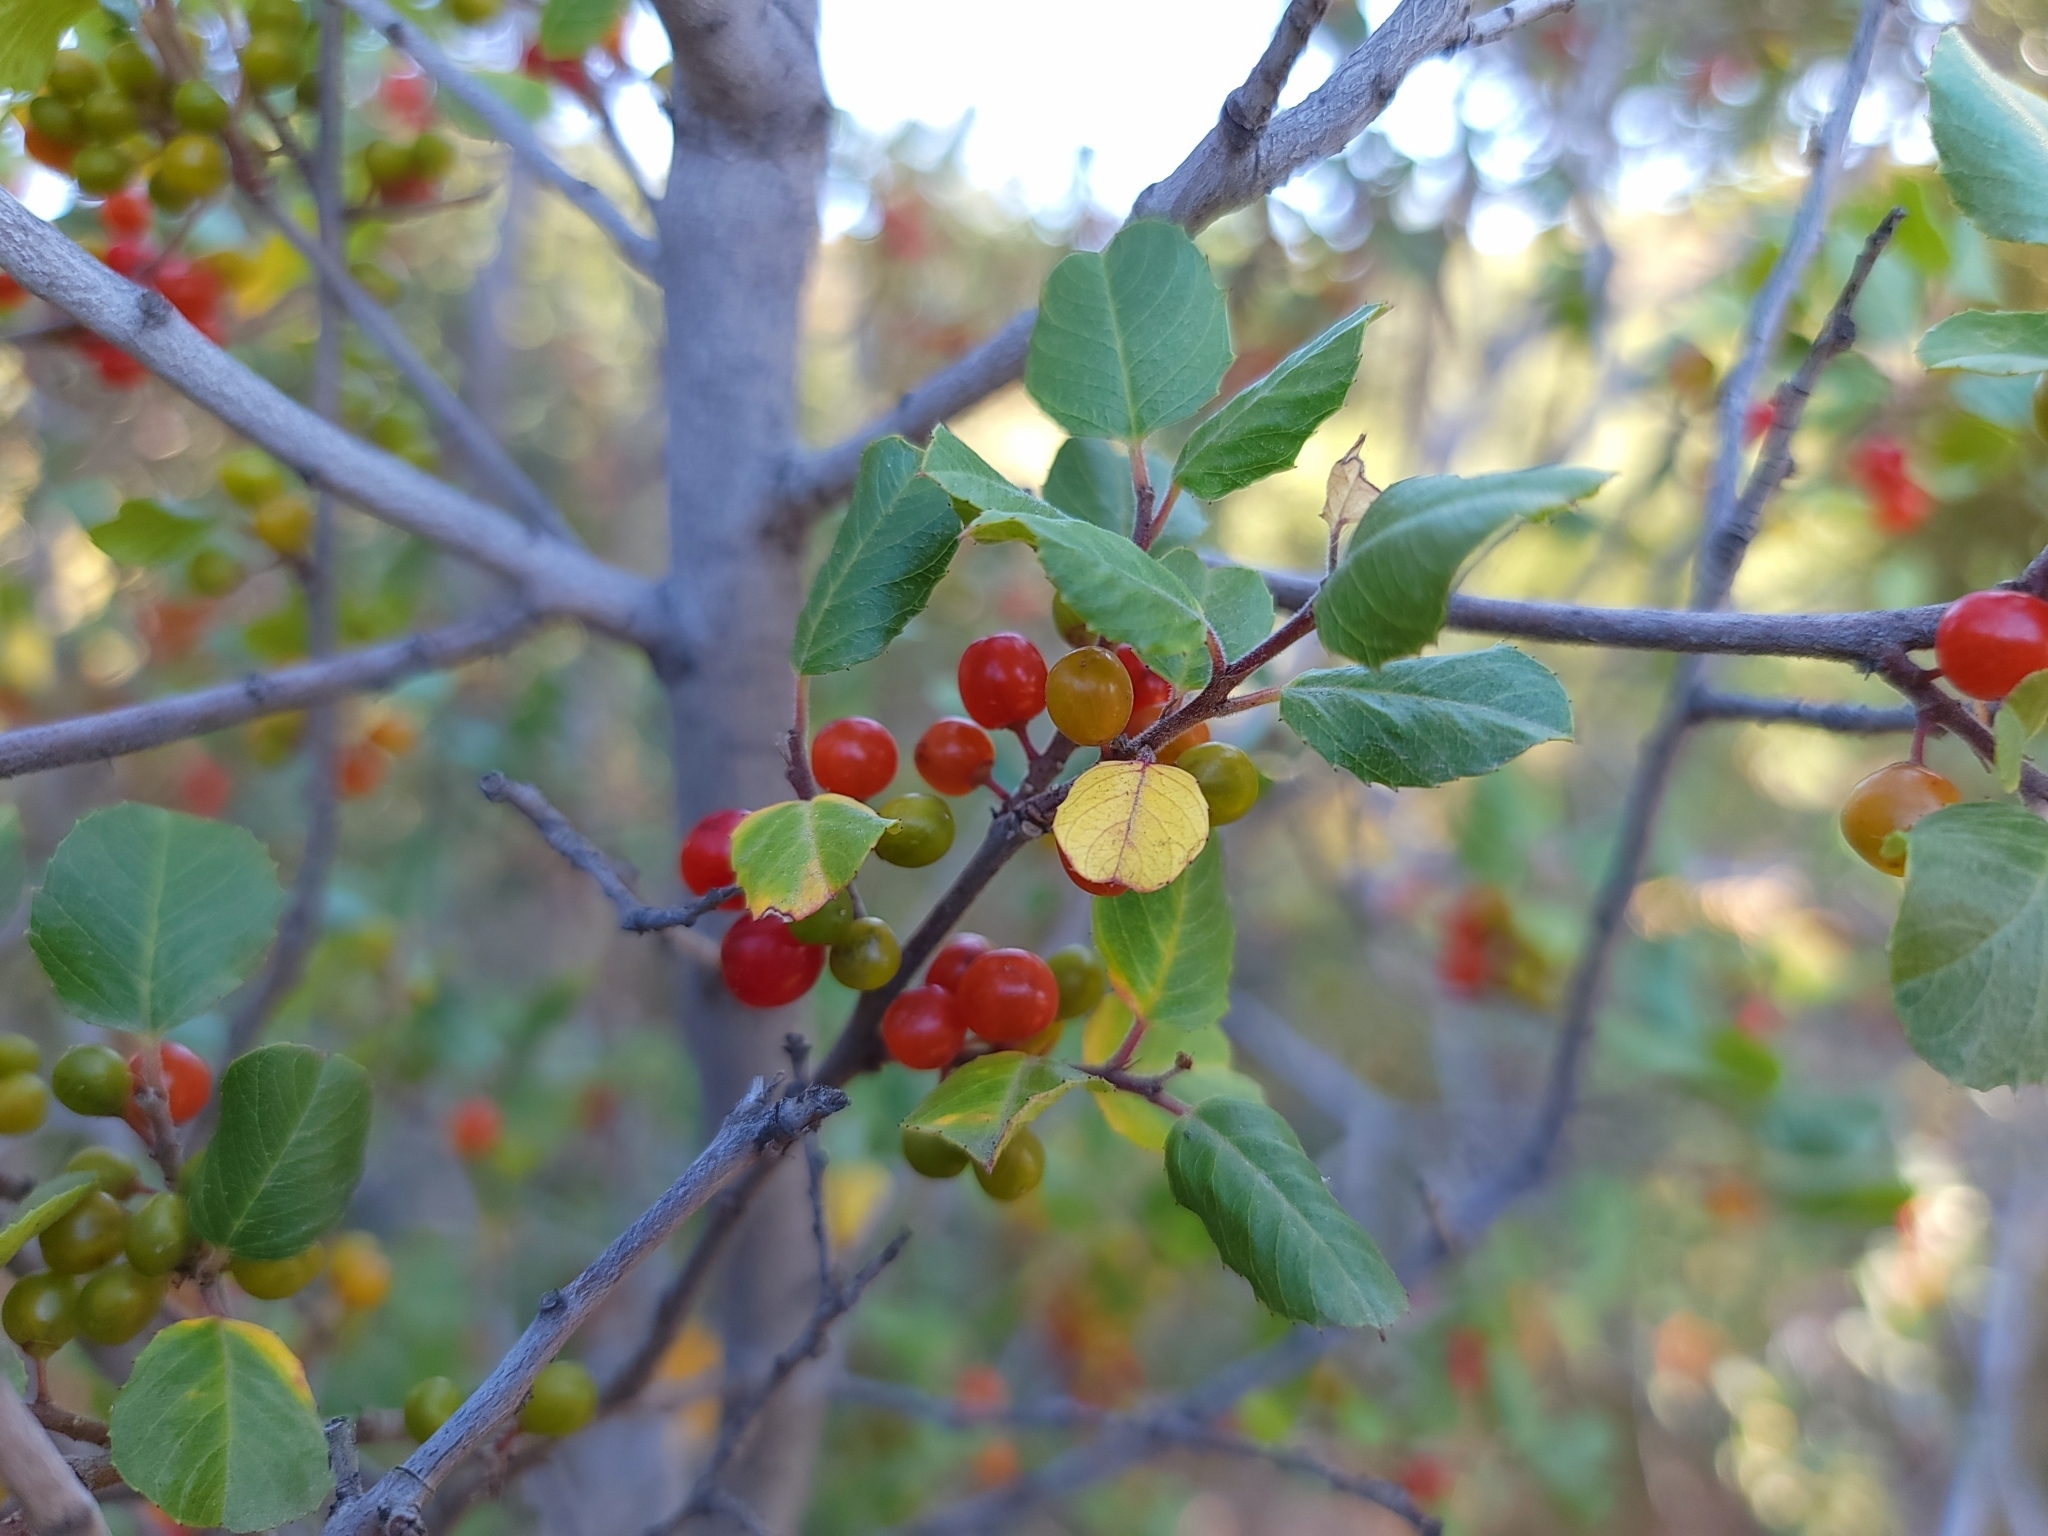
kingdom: Plantae
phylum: Tracheophyta
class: Magnoliopsida
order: Rosales
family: Rhamnaceae
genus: Endotropis
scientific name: Endotropis crocea
